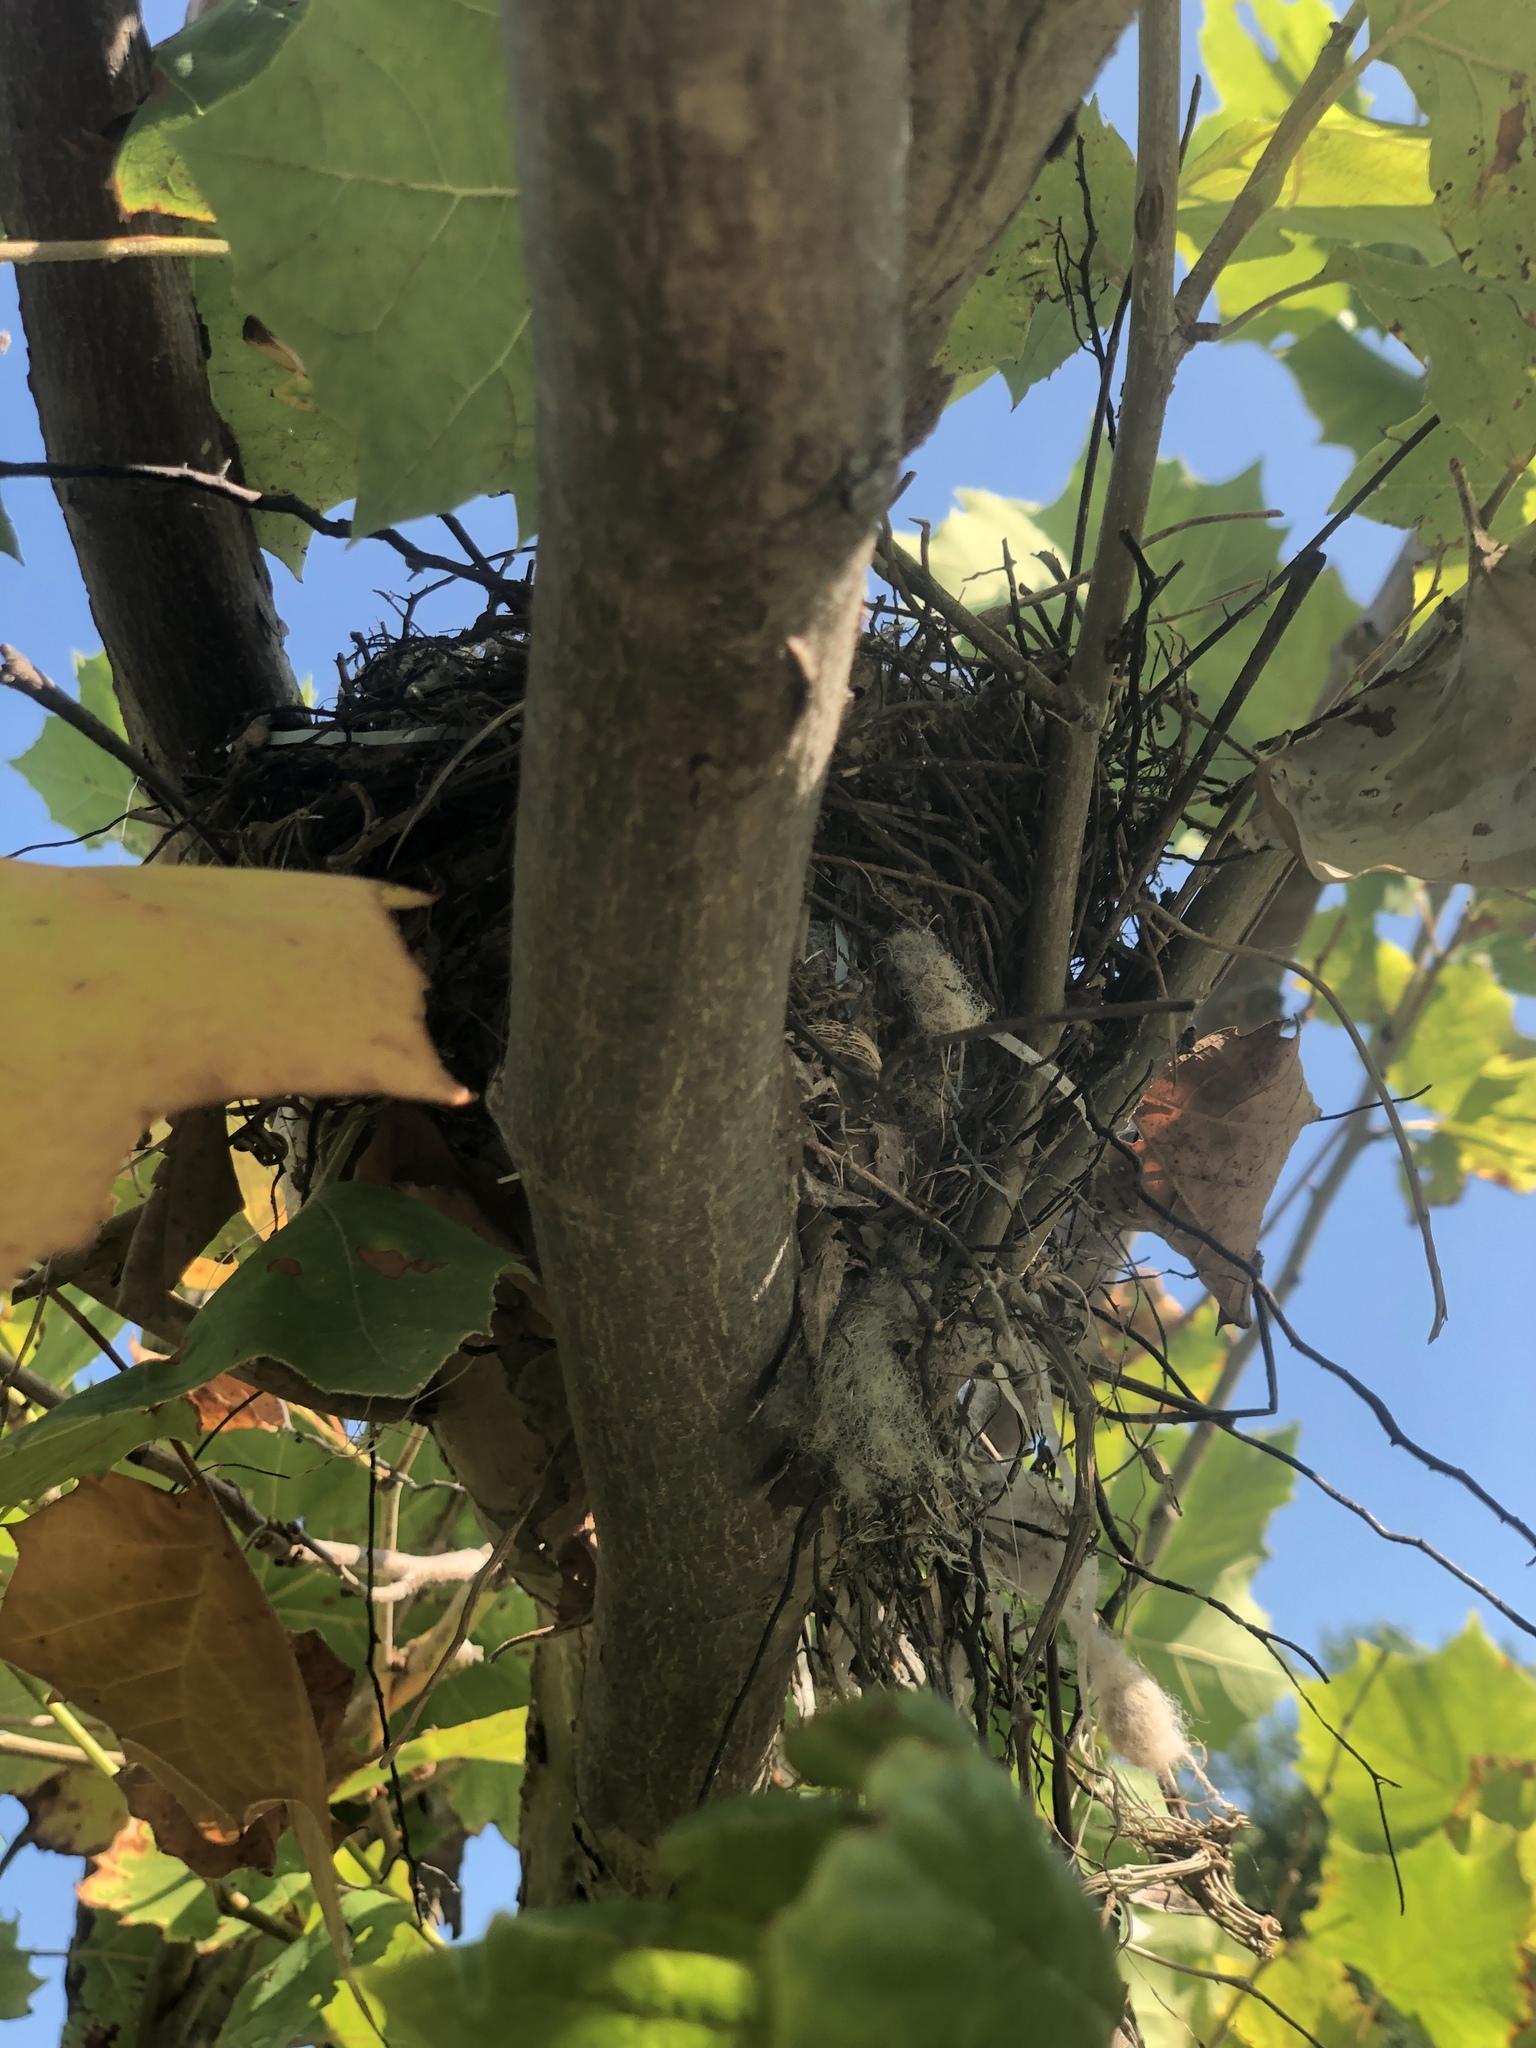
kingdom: Animalia
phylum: Chordata
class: Aves
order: Passeriformes
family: Tyrannidae
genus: Tyrannus
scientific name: Tyrannus tyrannus
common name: Eastern kingbird
